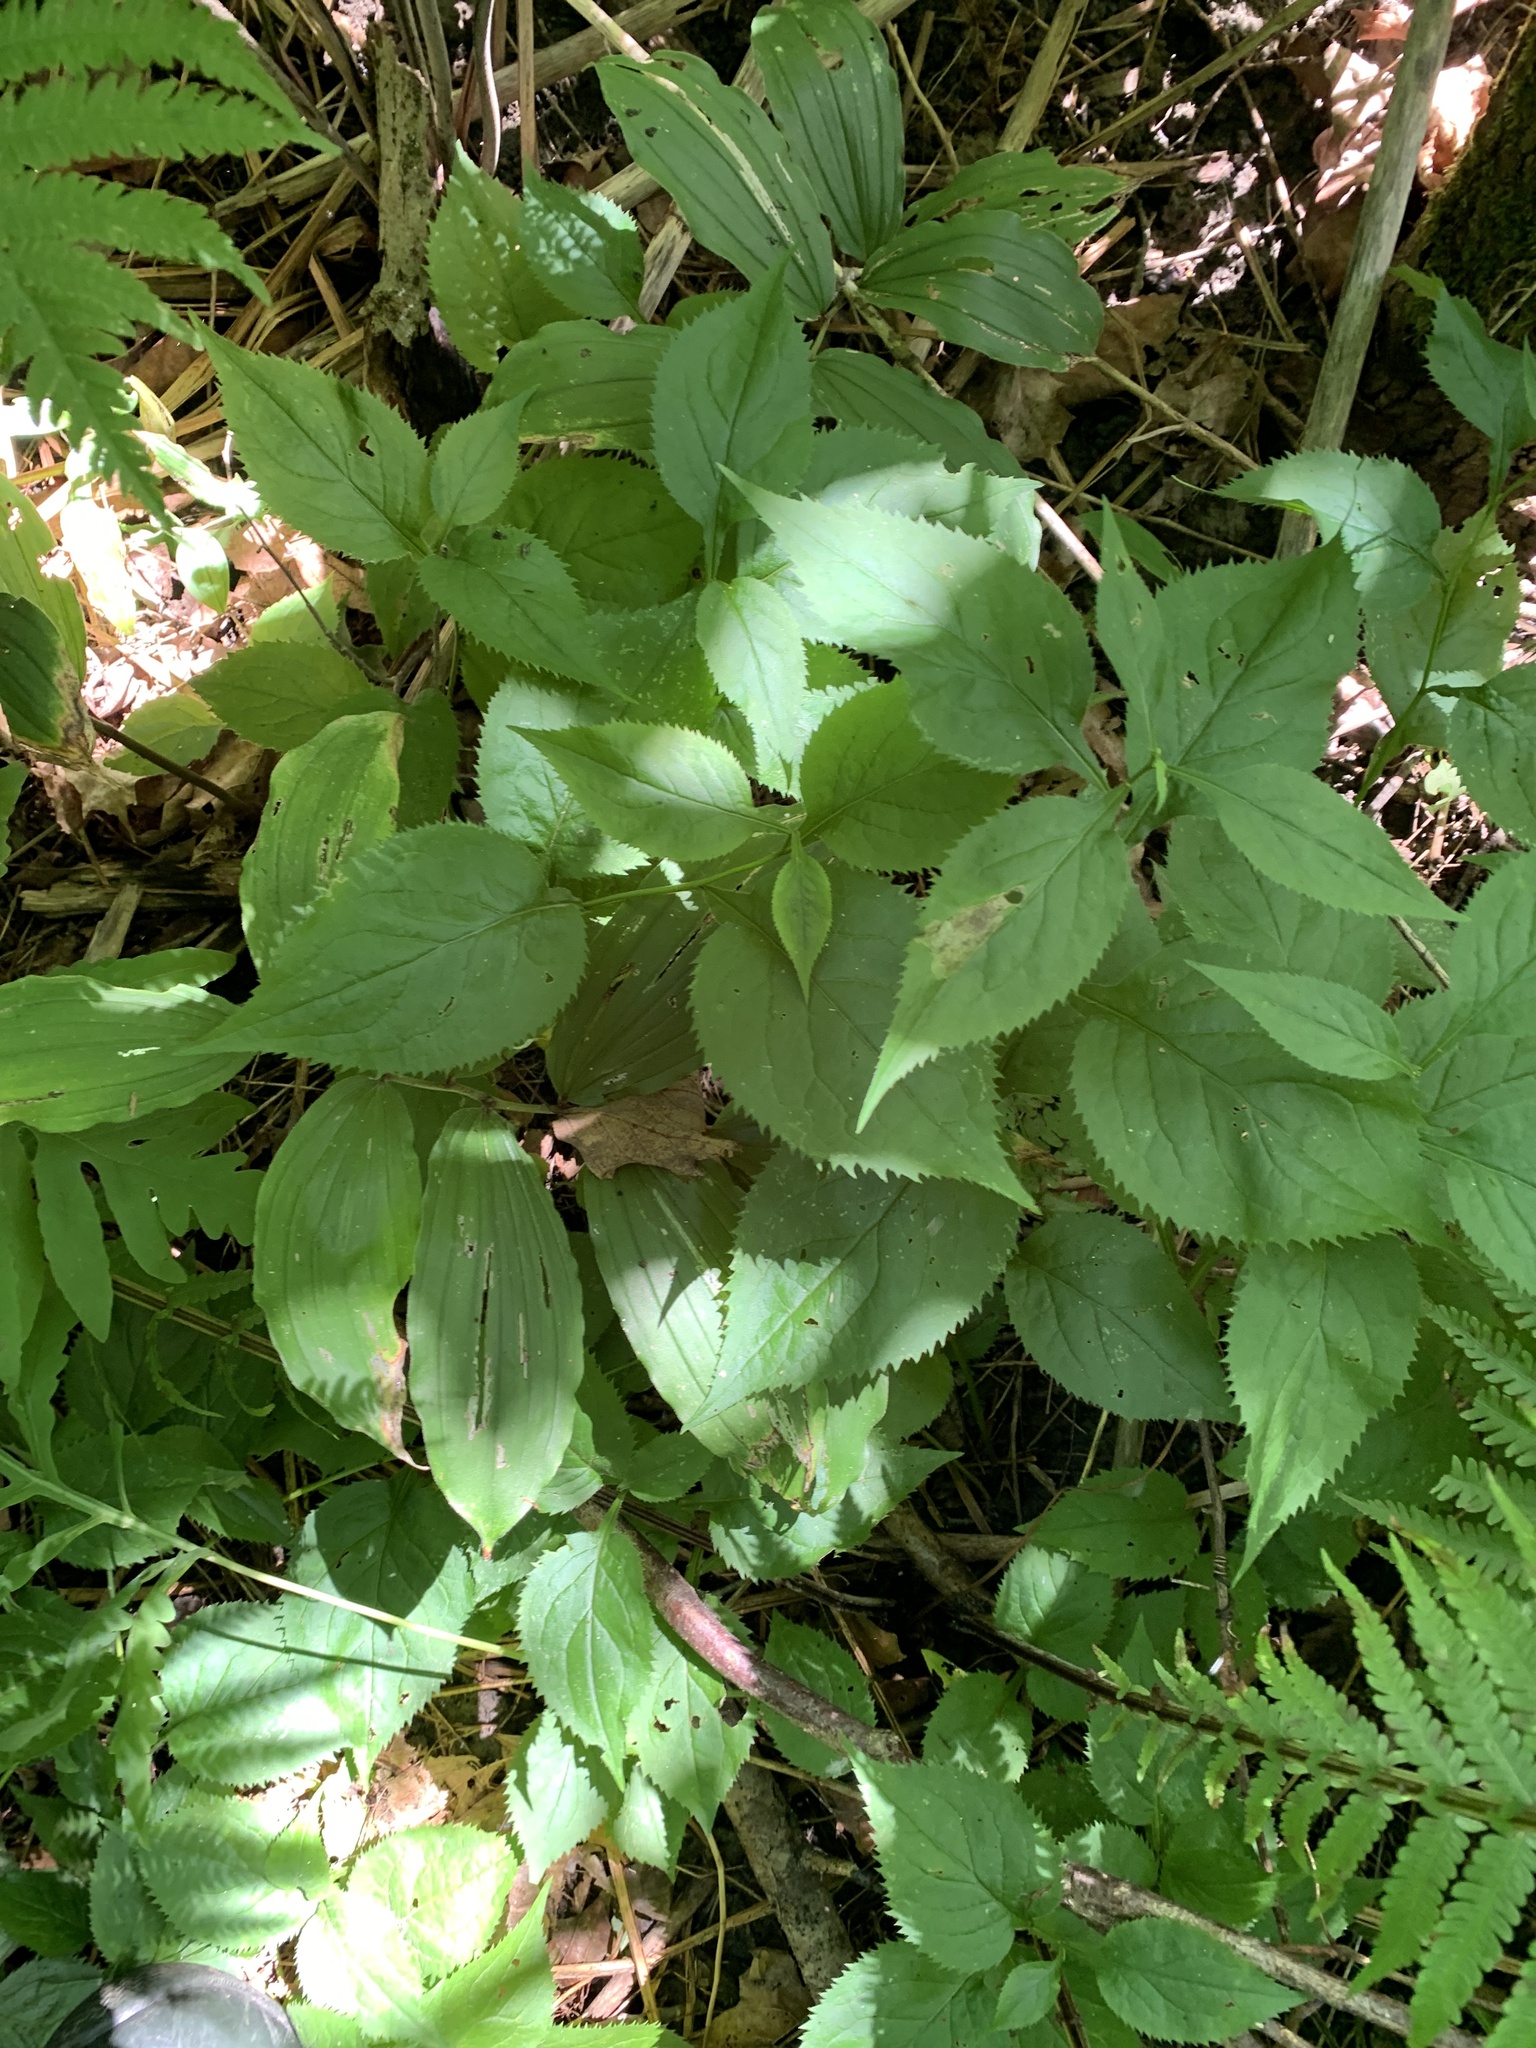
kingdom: Plantae
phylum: Tracheophyta
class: Magnoliopsida
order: Asterales
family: Asteraceae
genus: Solidago
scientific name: Solidago flexicaulis
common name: Zig-zag goldenrod
